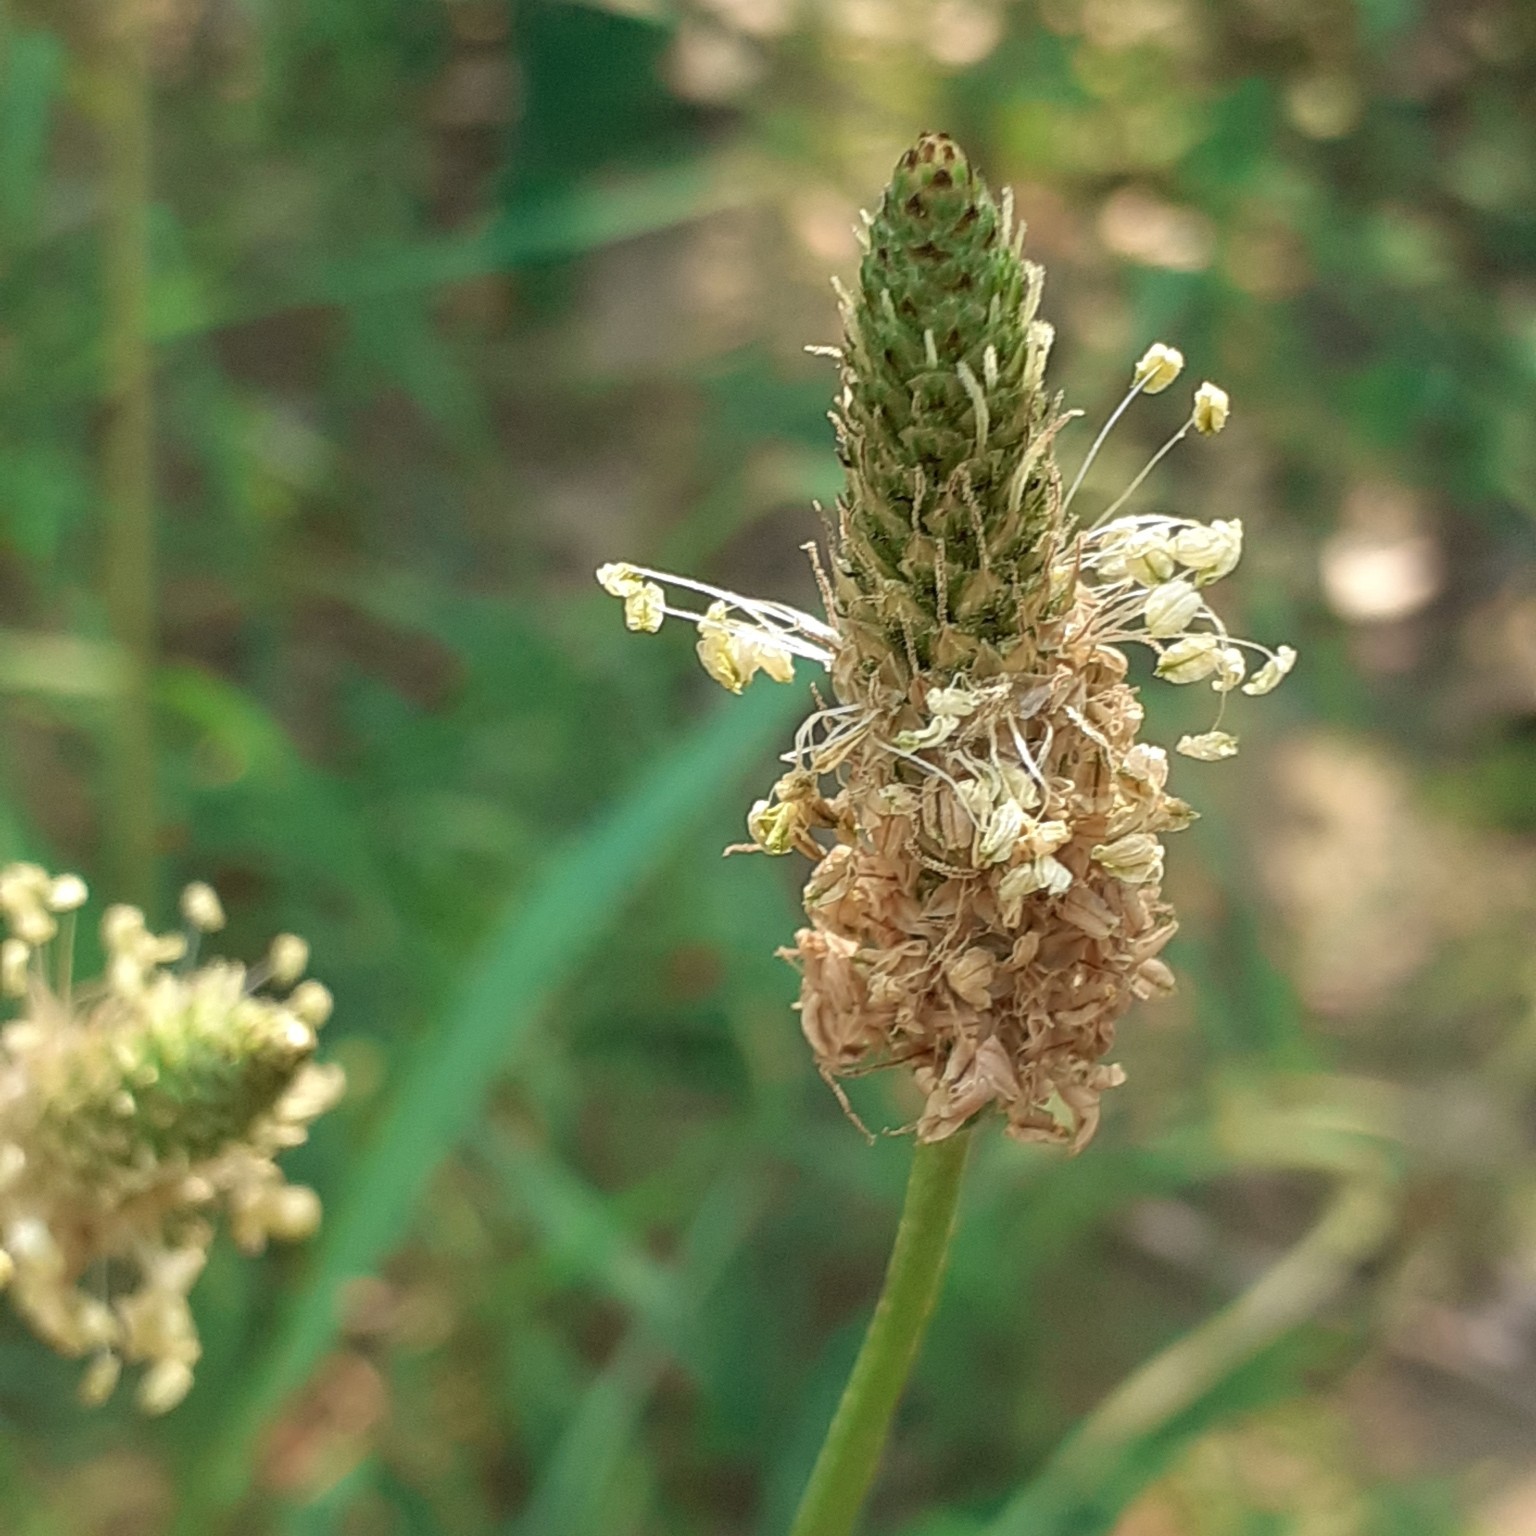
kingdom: Plantae
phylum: Tracheophyta
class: Magnoliopsida
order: Lamiales
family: Plantaginaceae
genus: Plantago
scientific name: Plantago lanceolata
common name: Ribwort plantain
